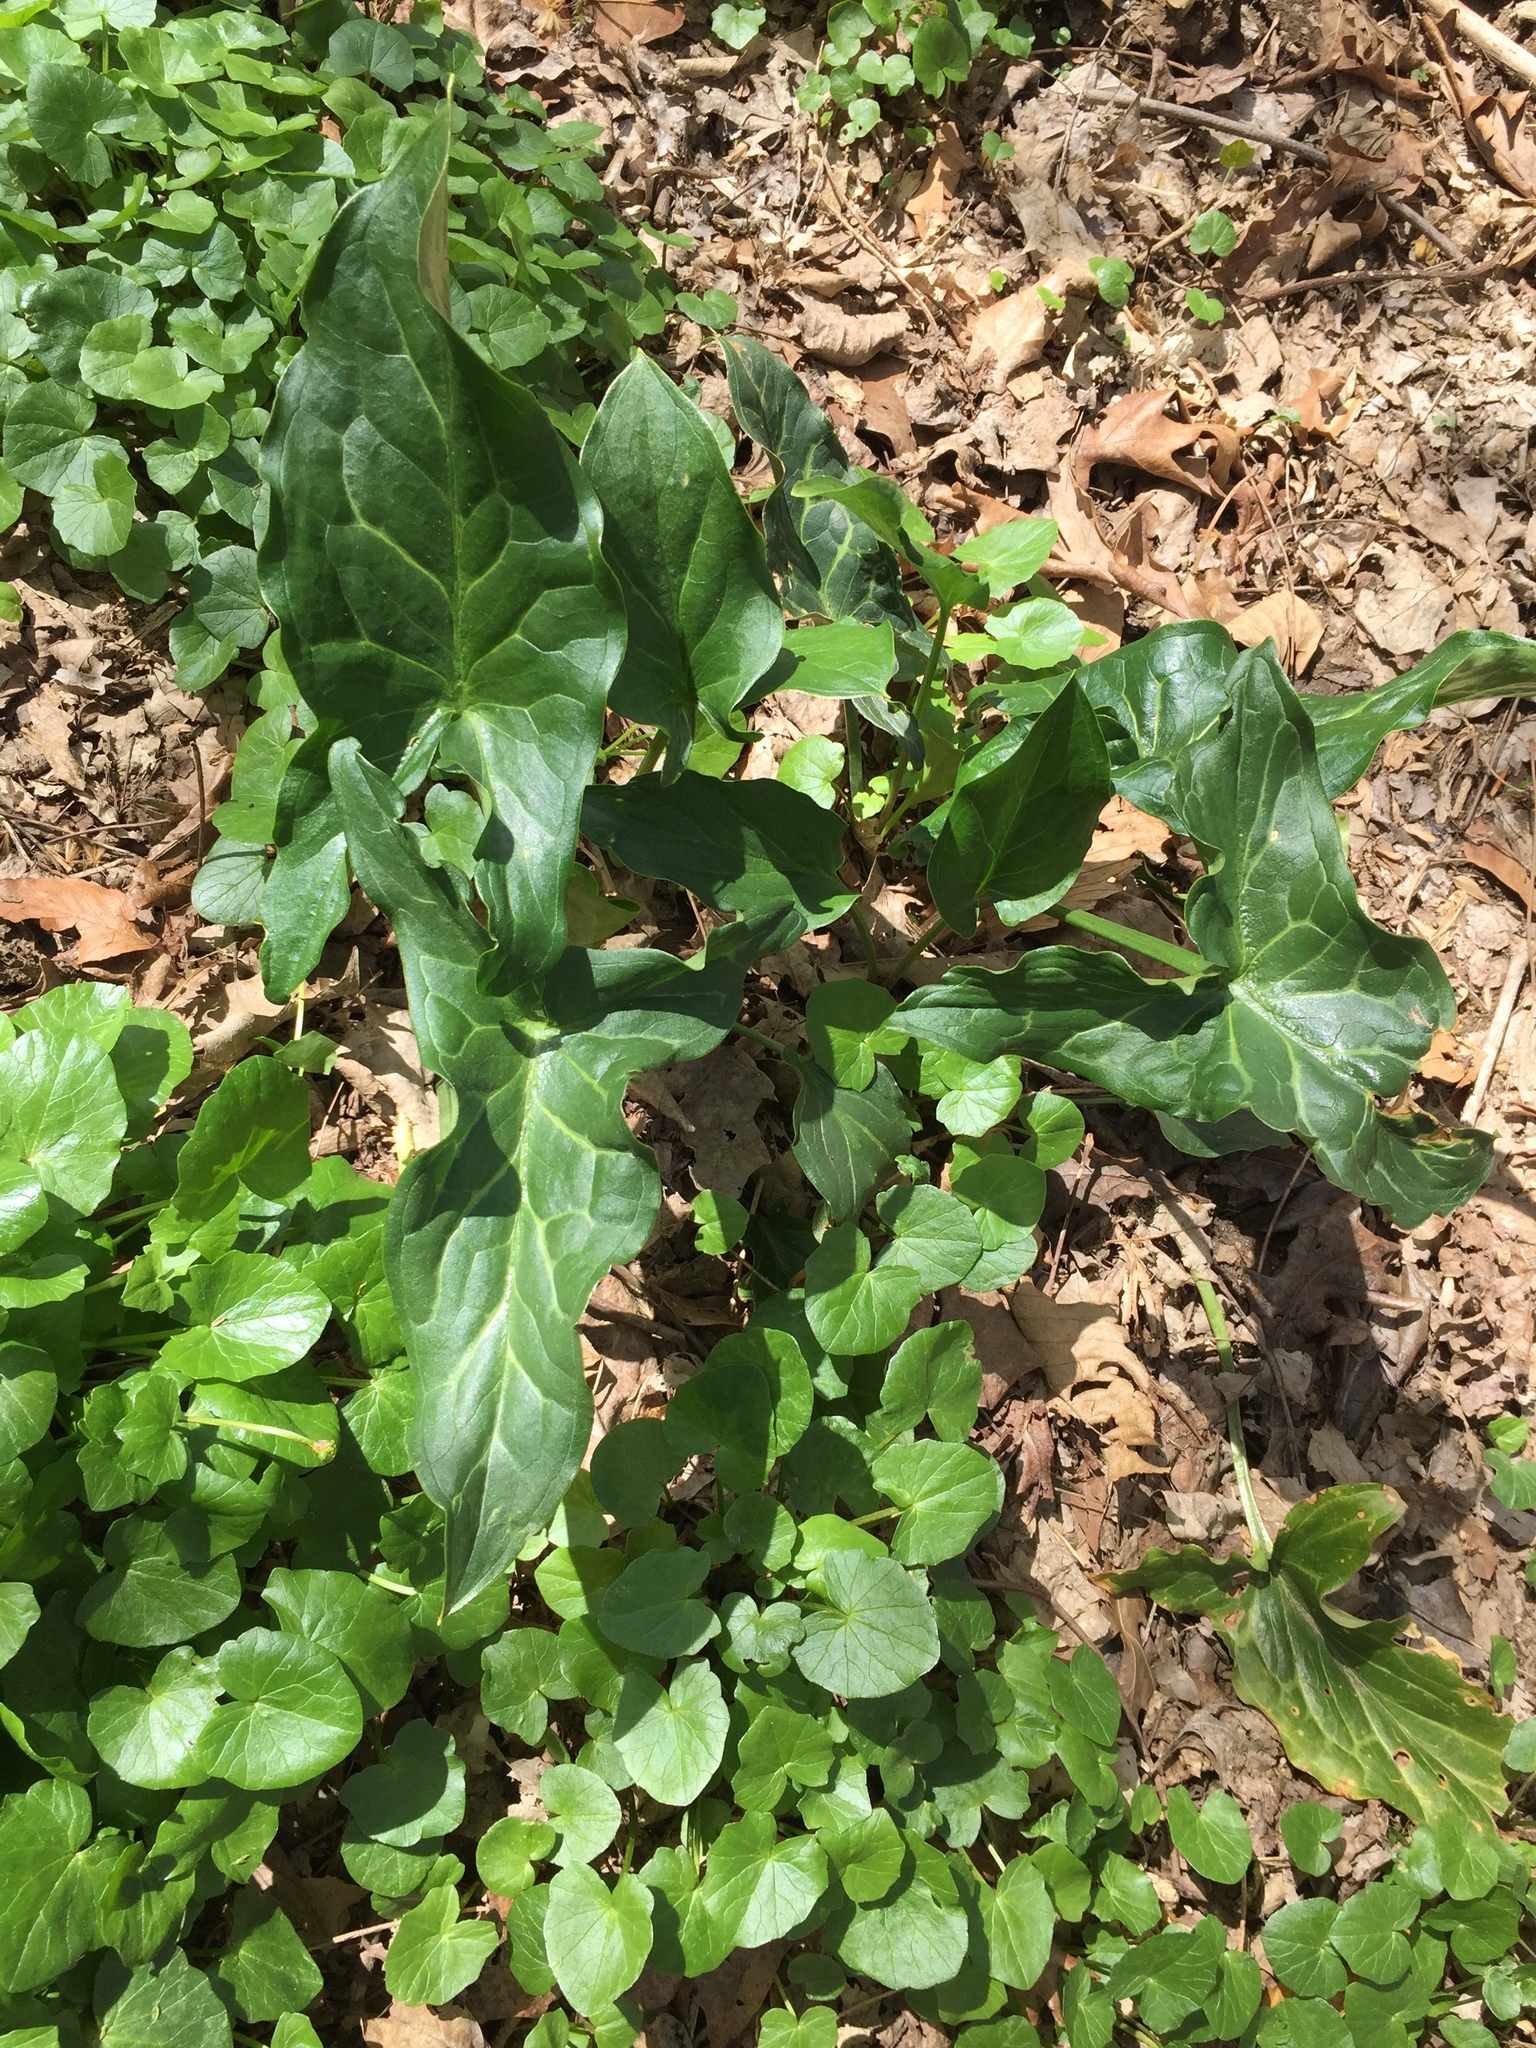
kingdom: Plantae
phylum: Tracheophyta
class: Liliopsida
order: Alismatales
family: Araceae
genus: Arum
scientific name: Arum italicum
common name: Italian lords-and-ladies
